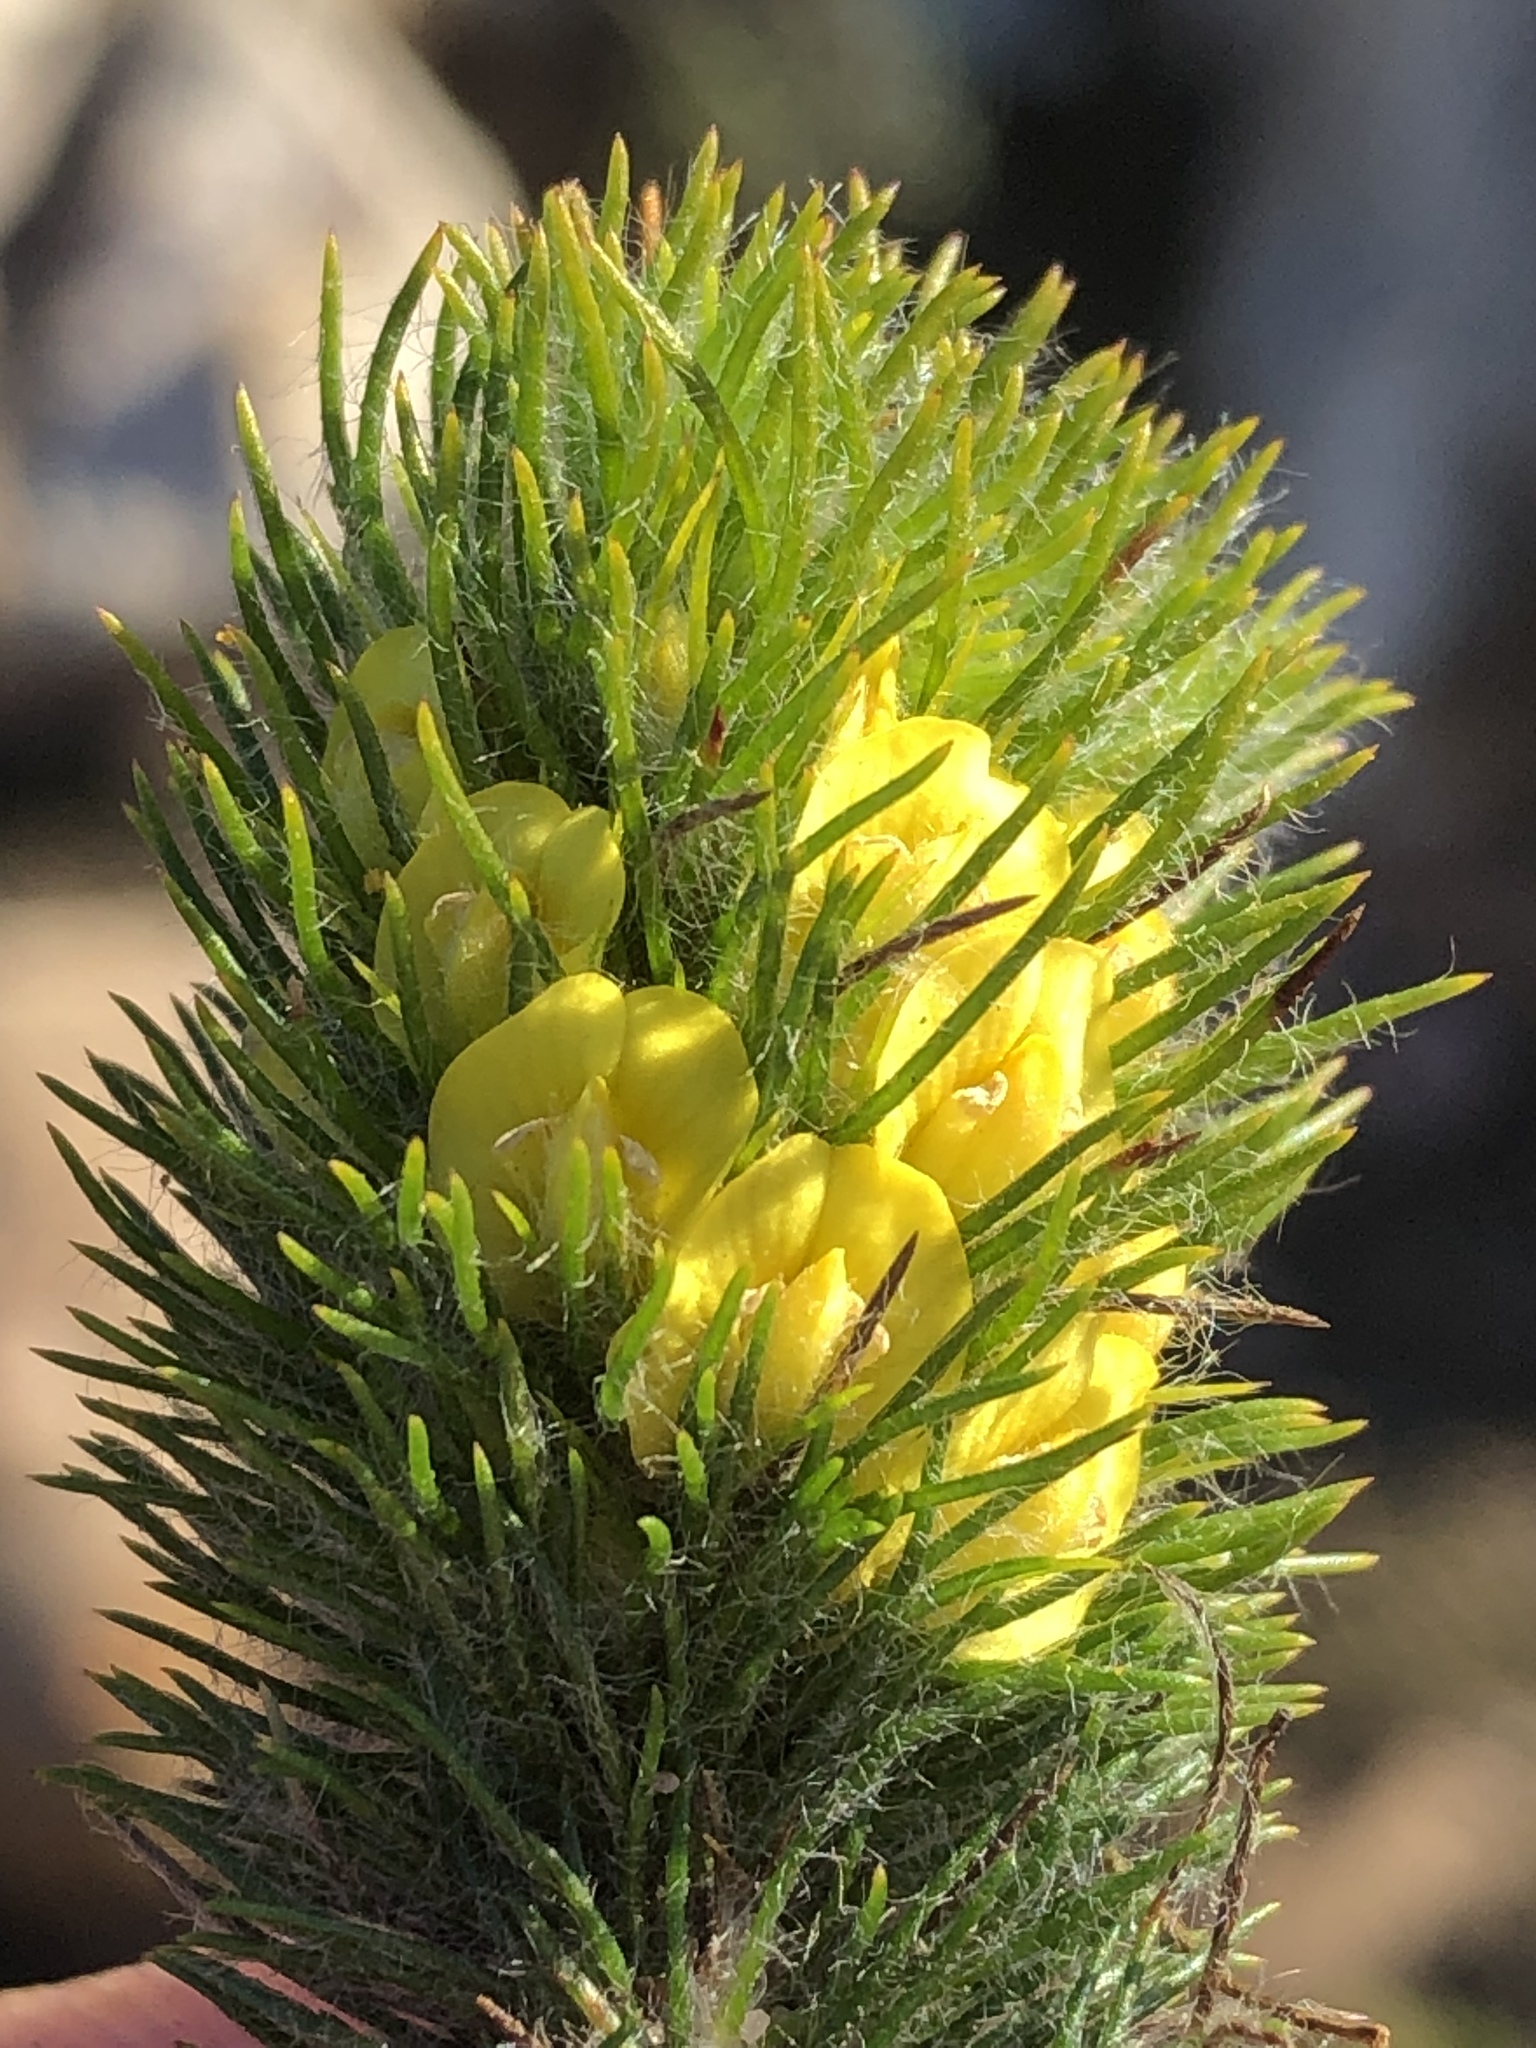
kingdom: Plantae
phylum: Tracheophyta
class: Magnoliopsida
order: Fabales
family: Fabaceae
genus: Aspalathus
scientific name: Aspalathus alopecurus
